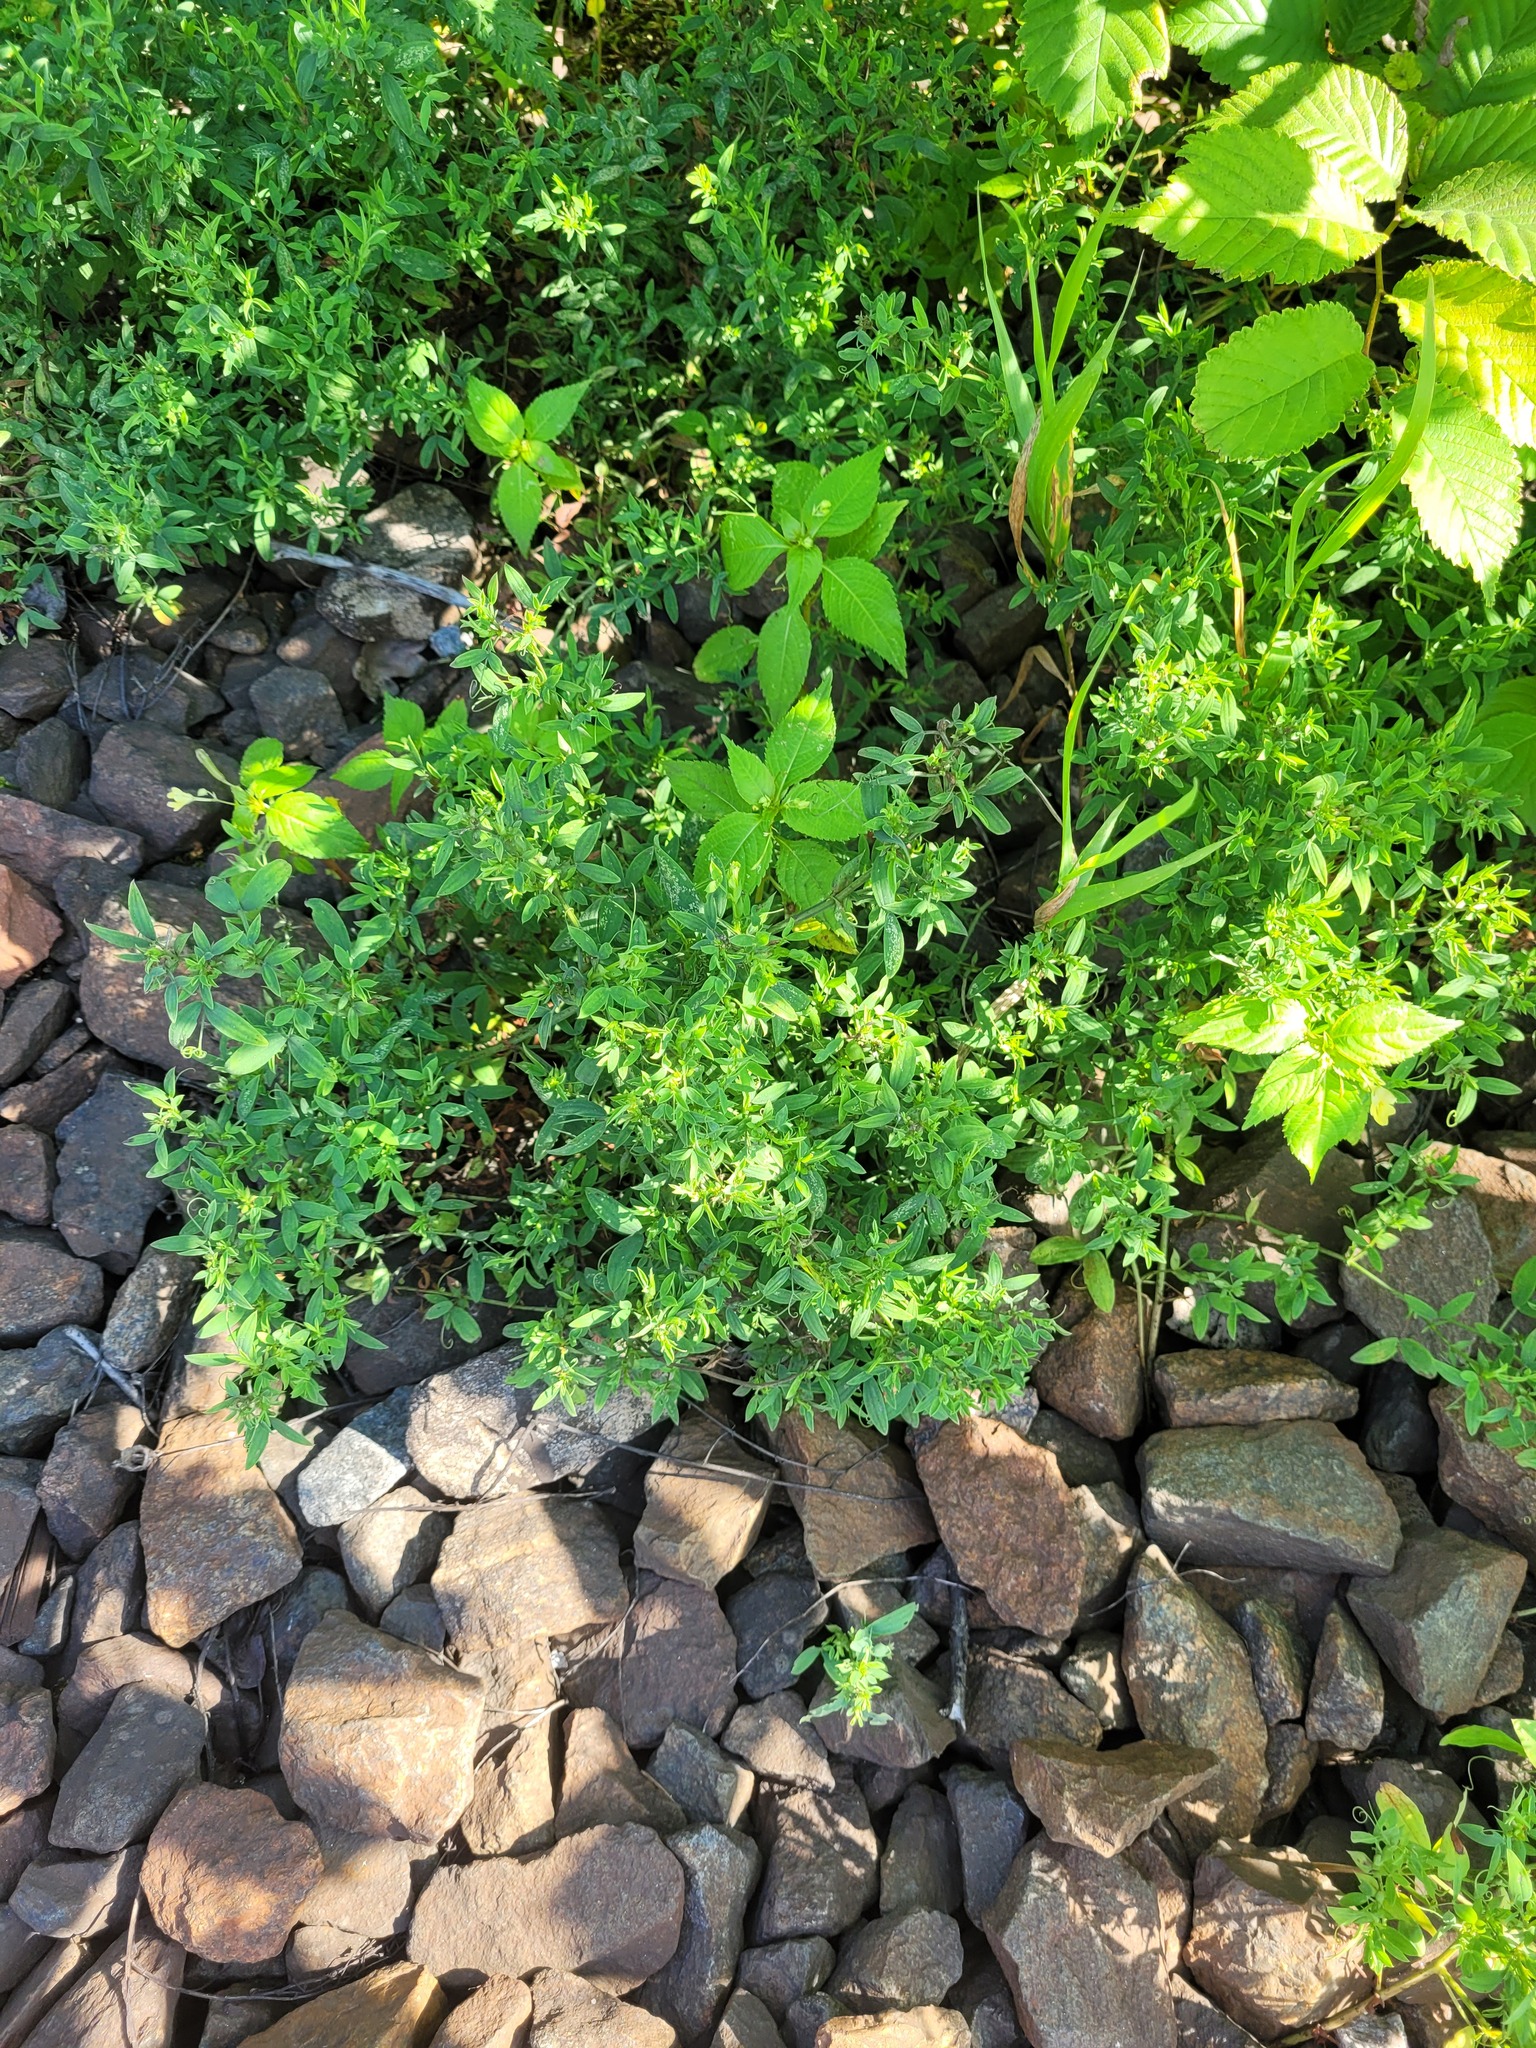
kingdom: Plantae
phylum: Tracheophyta
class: Magnoliopsida
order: Fabales
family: Fabaceae
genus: Lathyrus
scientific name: Lathyrus pratensis
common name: Meadow vetchling
